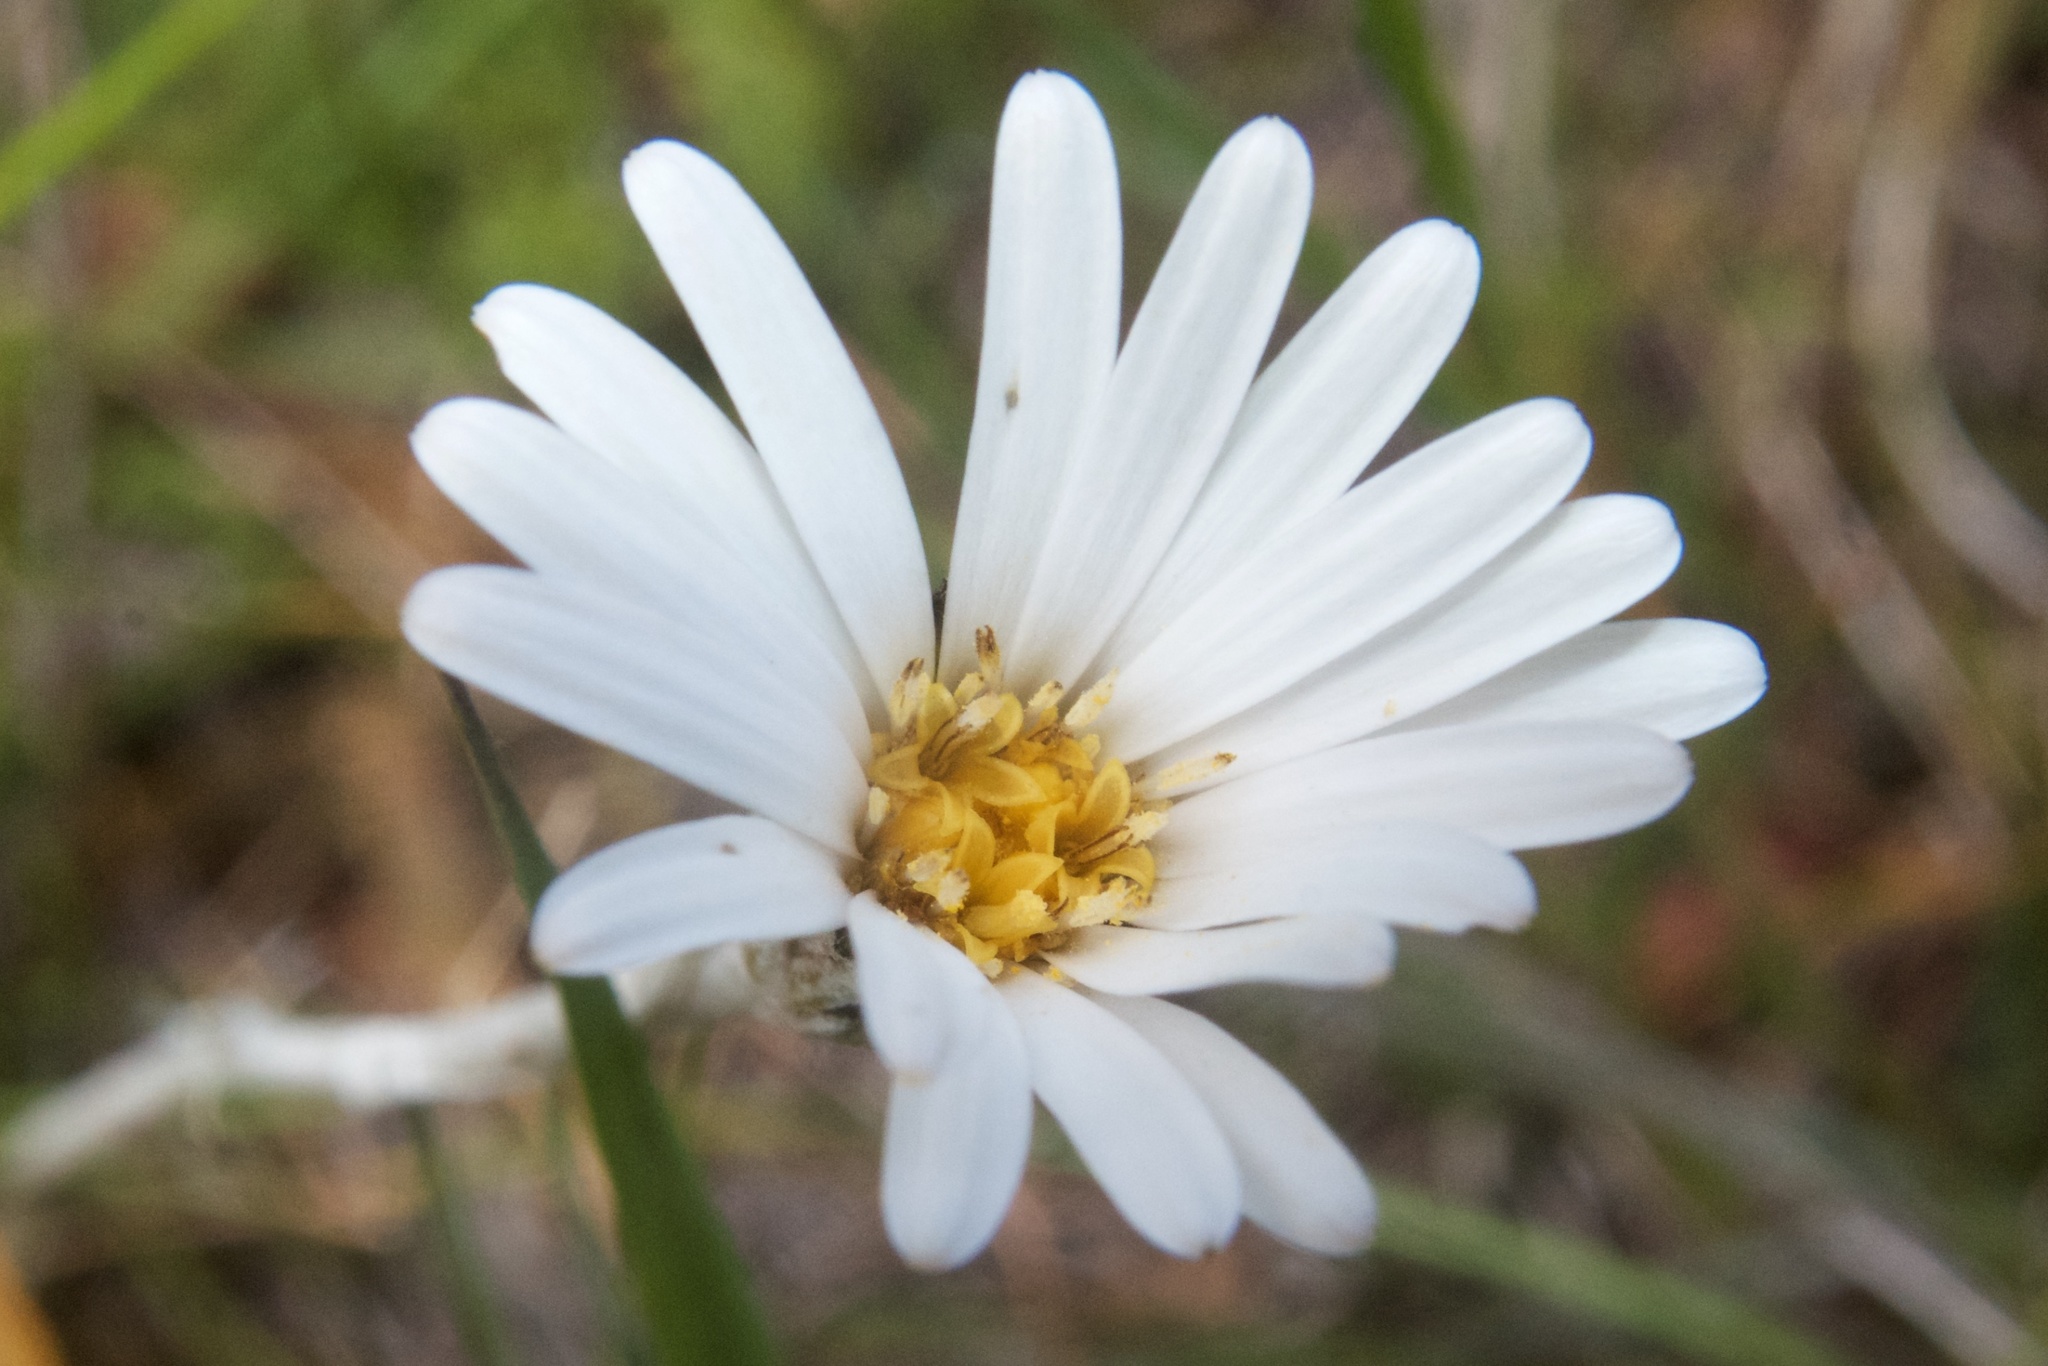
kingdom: Plantae
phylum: Tracheophyta
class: Magnoliopsida
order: Asterales
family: Asteraceae
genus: Celmisia
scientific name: Celmisia gracilenta
